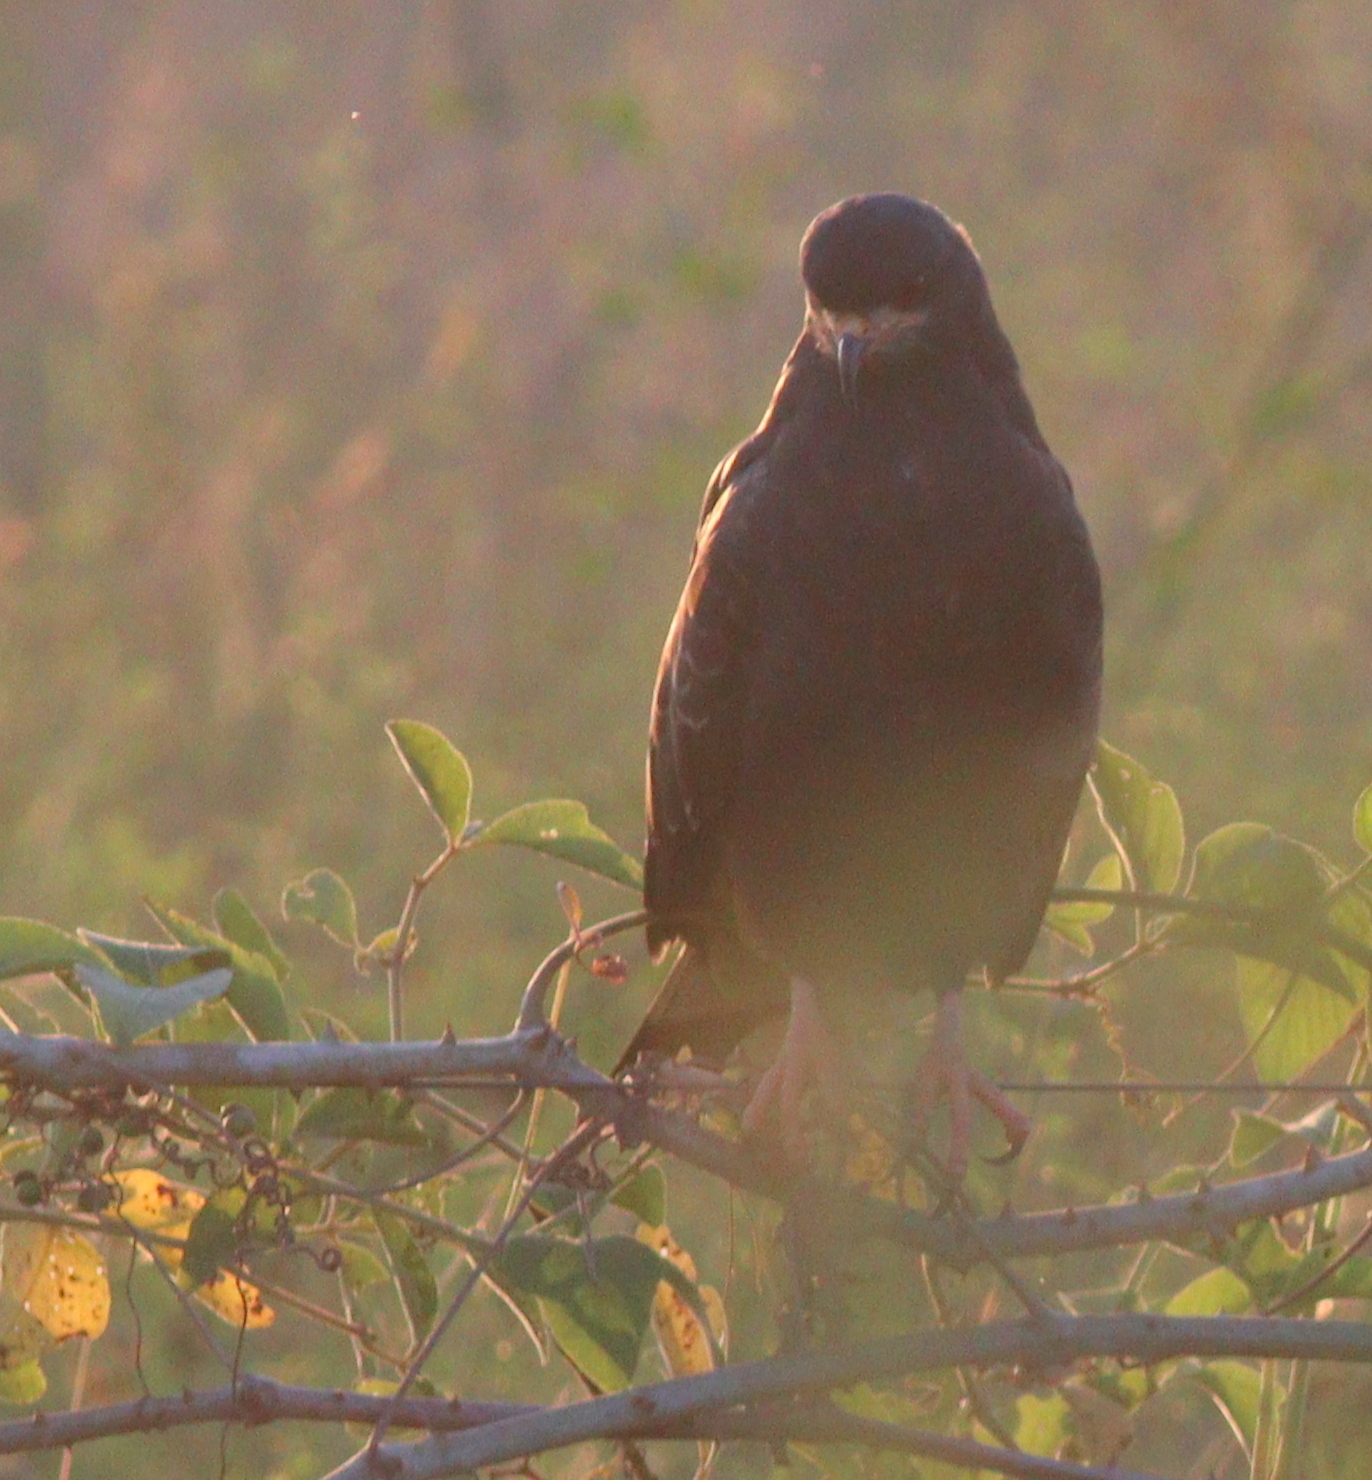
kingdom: Animalia
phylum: Chordata
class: Aves
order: Accipitriformes
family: Accipitridae
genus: Rostrhamus
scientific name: Rostrhamus sociabilis
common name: Snail kite
